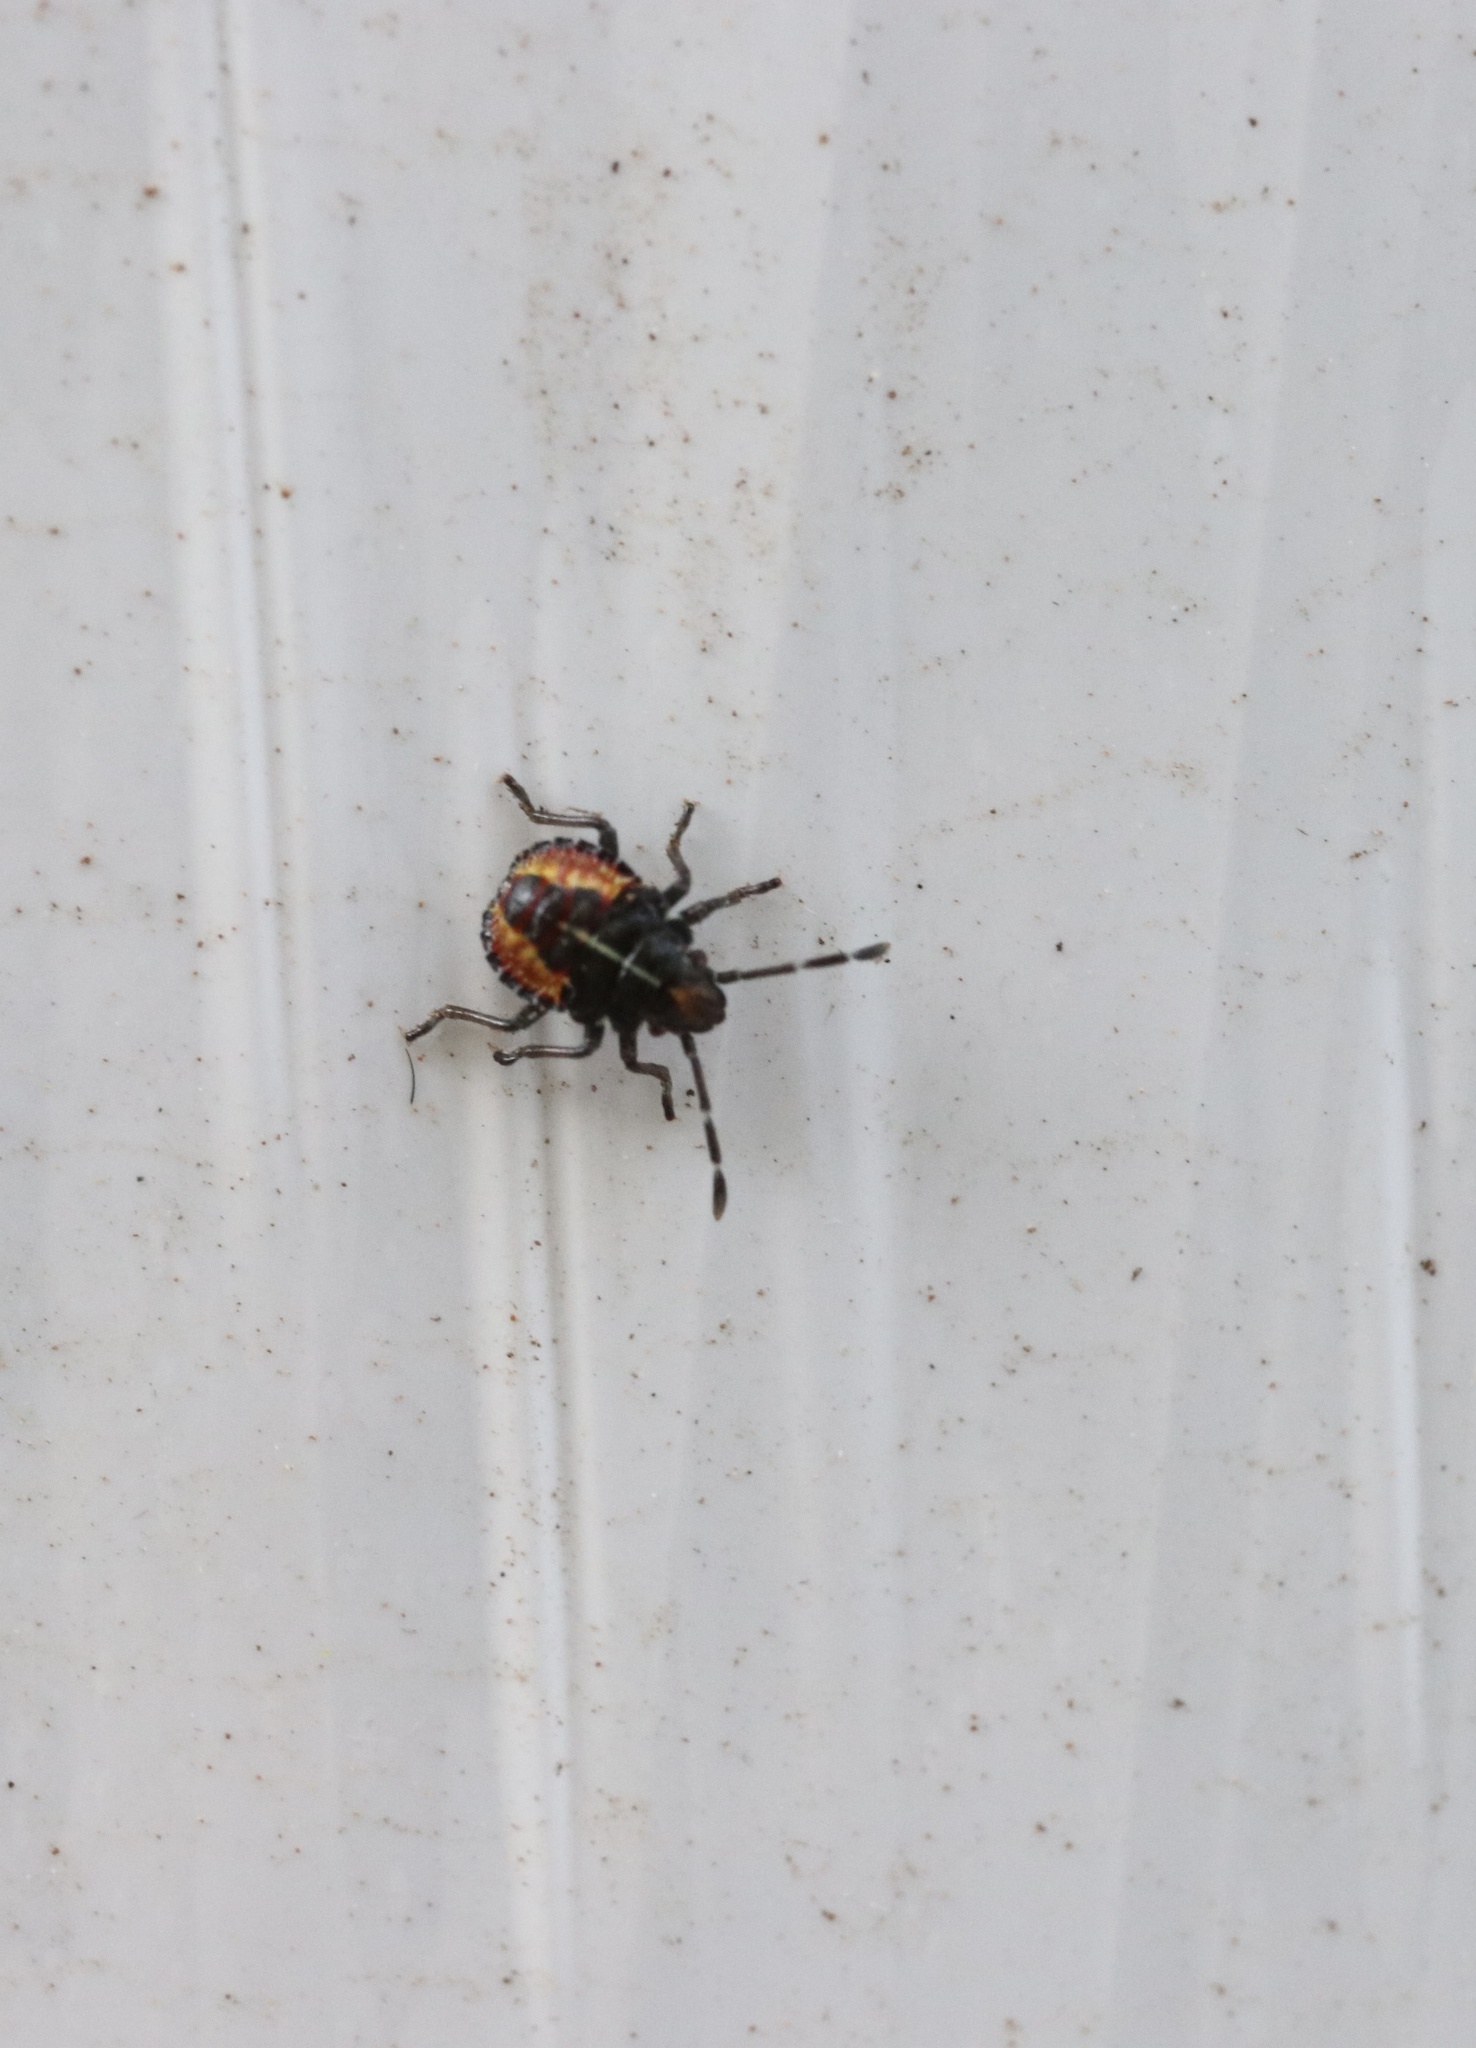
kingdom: Animalia
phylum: Arthropoda
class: Insecta
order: Hemiptera
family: Acanthosomatidae
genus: Sinopla
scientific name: Sinopla perpunctatus
